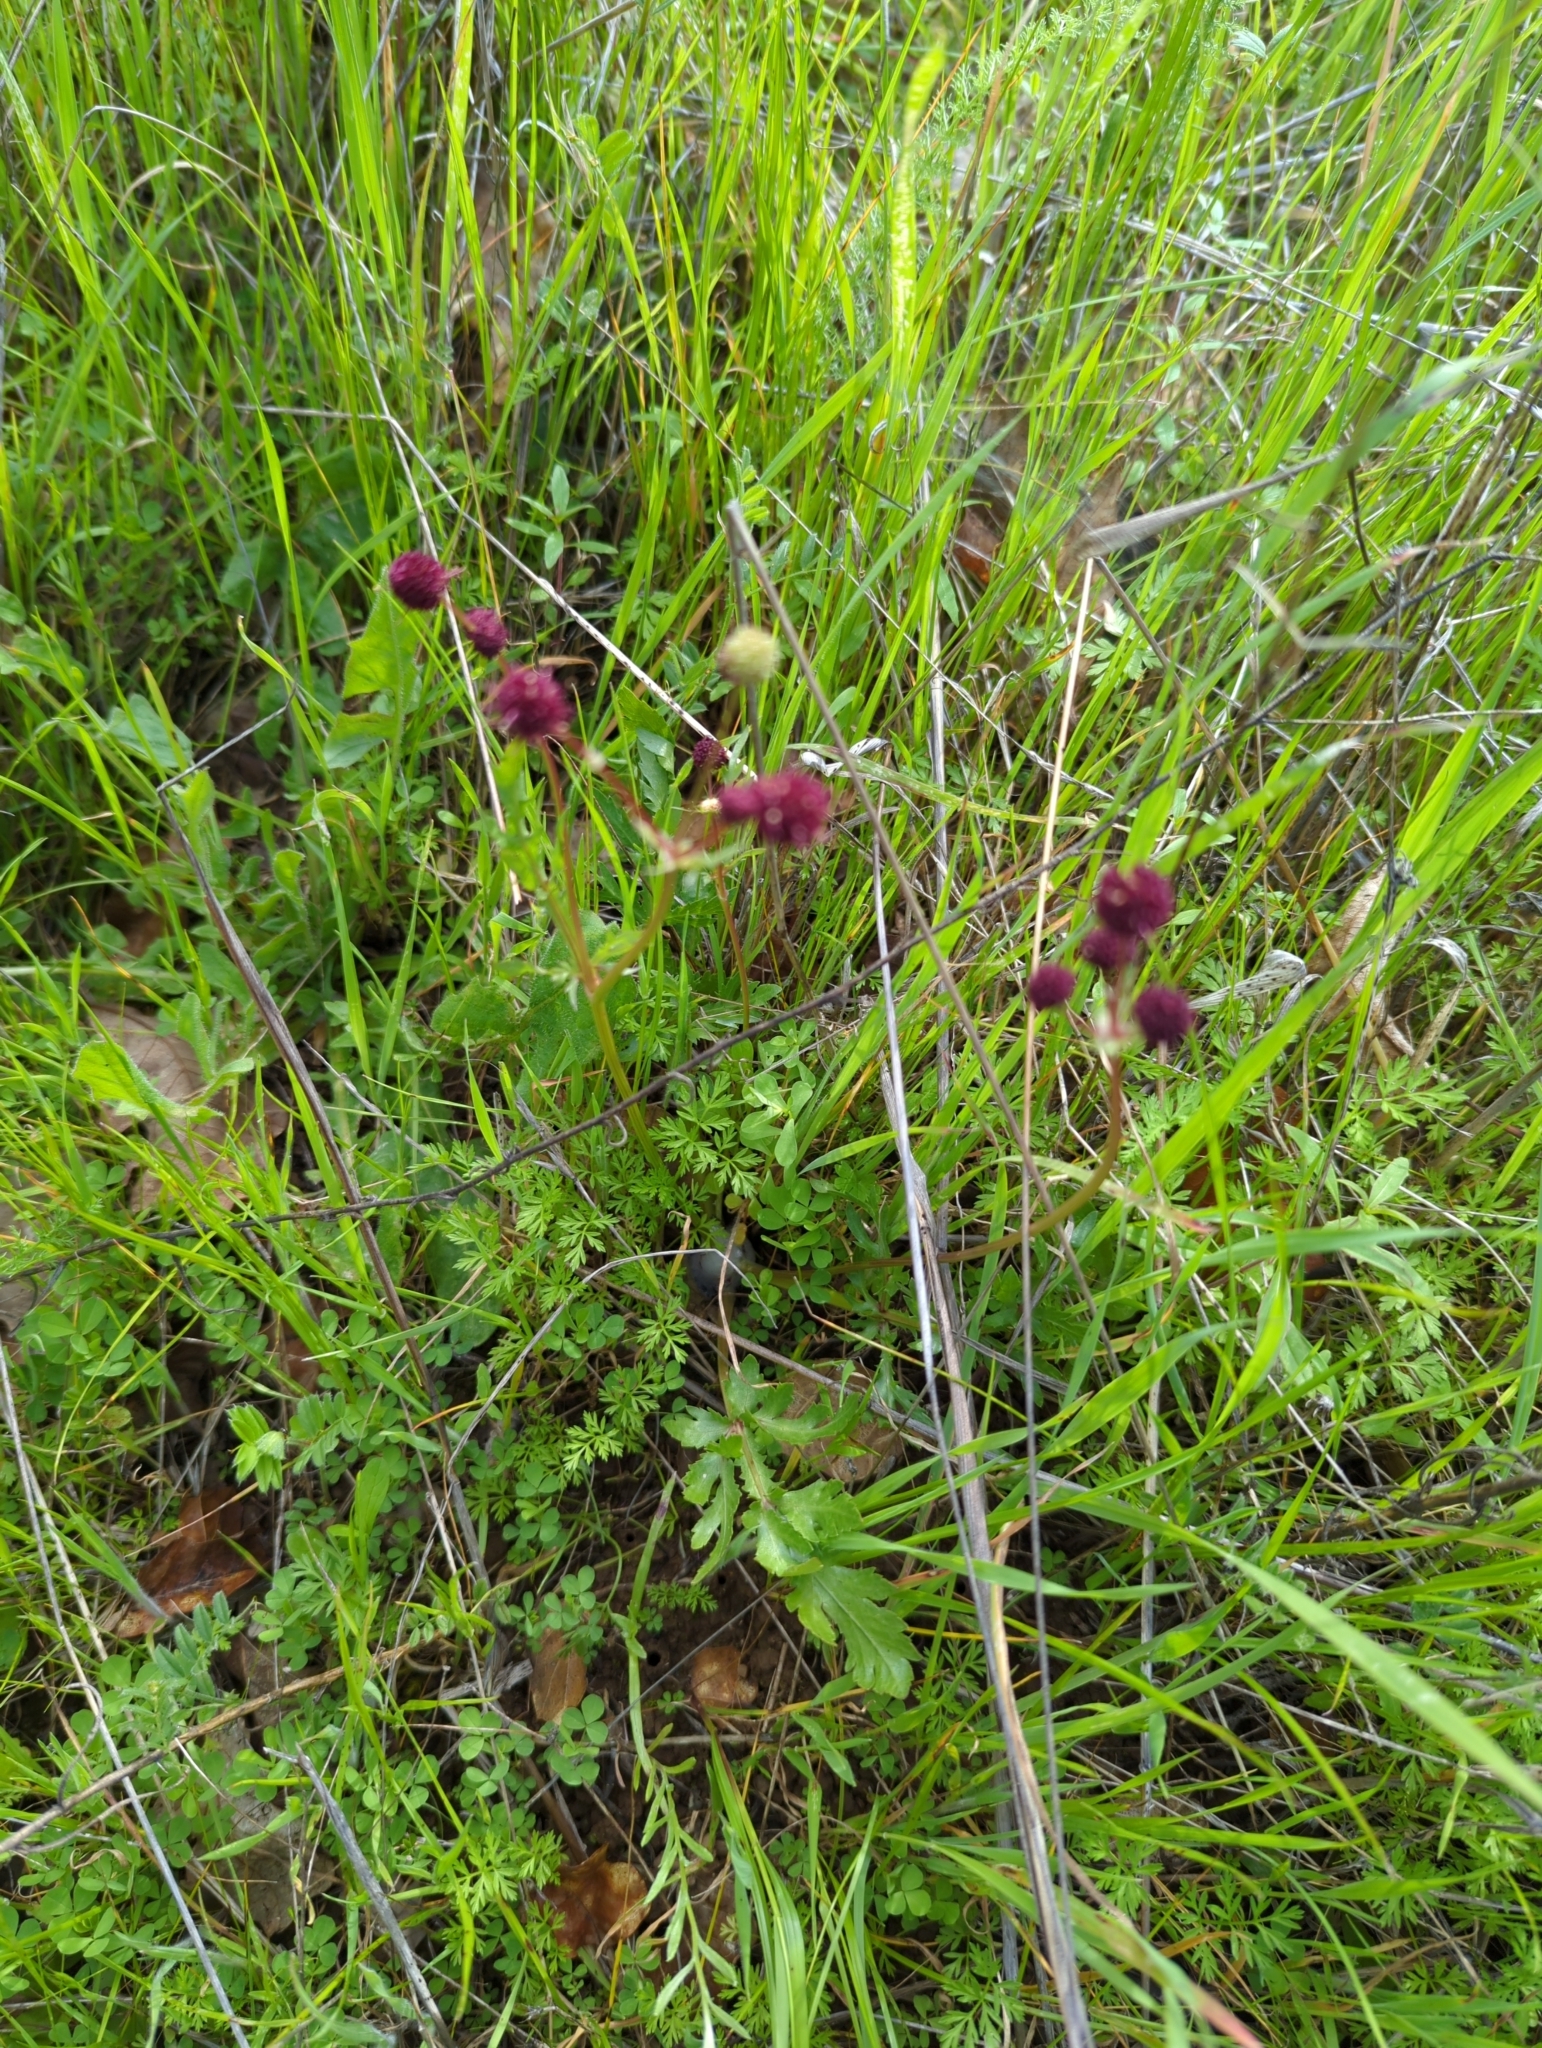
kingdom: Plantae
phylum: Tracheophyta
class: Magnoliopsida
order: Apiales
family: Apiaceae
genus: Sanicula
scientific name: Sanicula bipinnatifida
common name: Shoe-buttons
